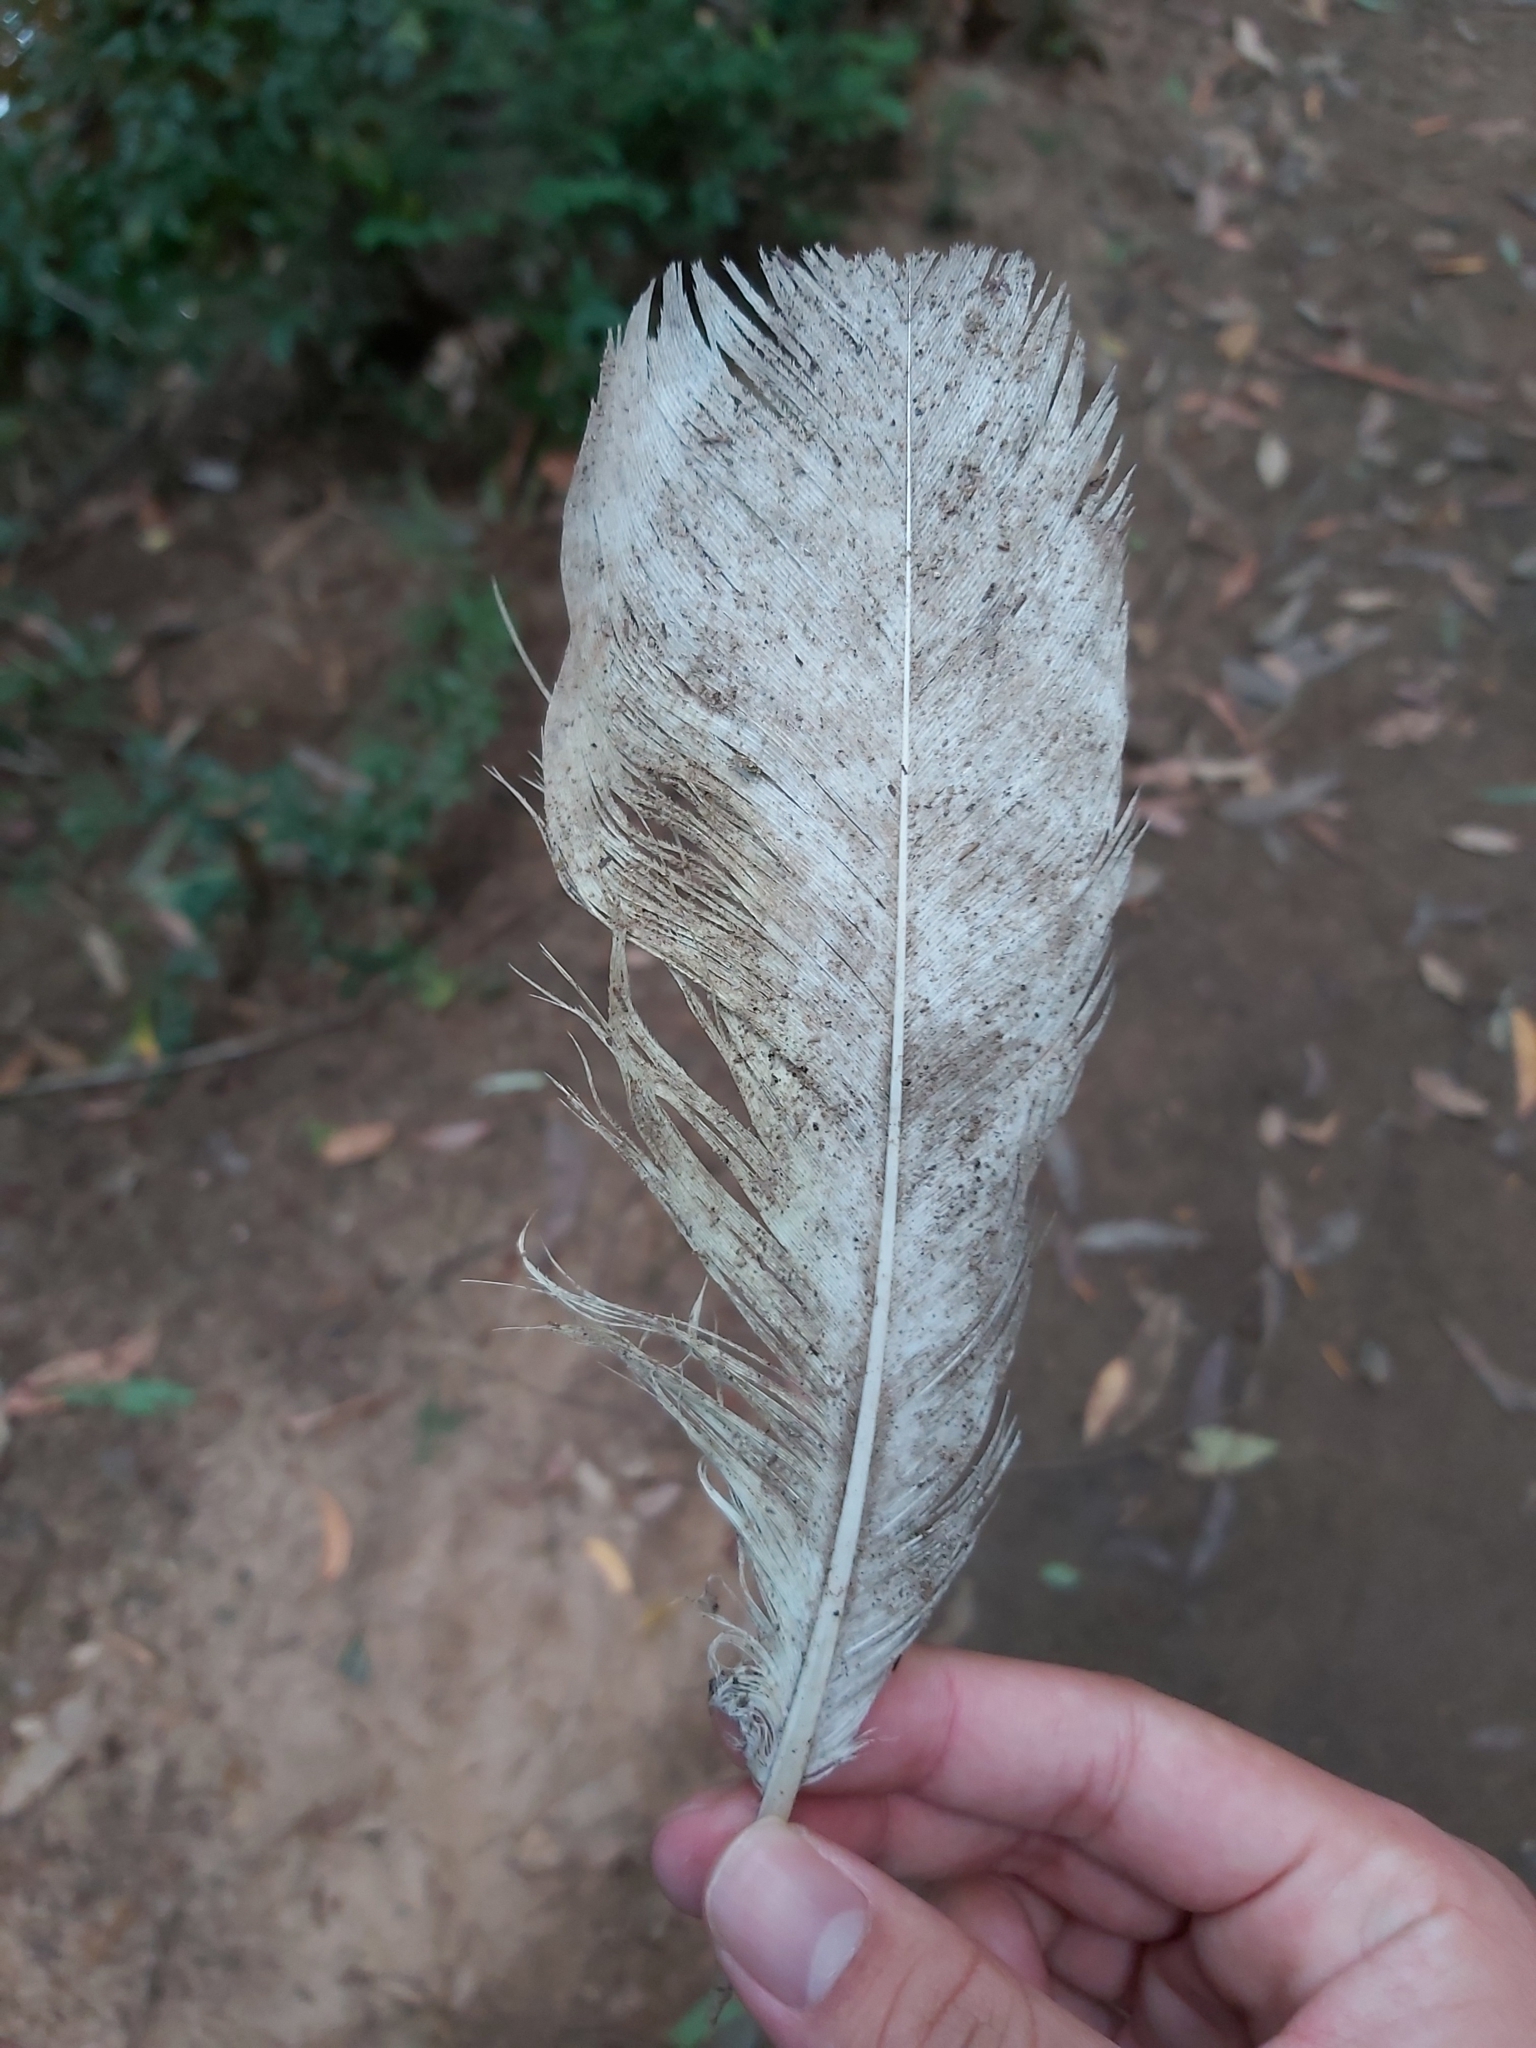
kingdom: Animalia
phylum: Chordata
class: Aves
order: Psittaciformes
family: Psittacidae
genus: Cacatua
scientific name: Cacatua galerita
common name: Sulphur-crested cockatoo
